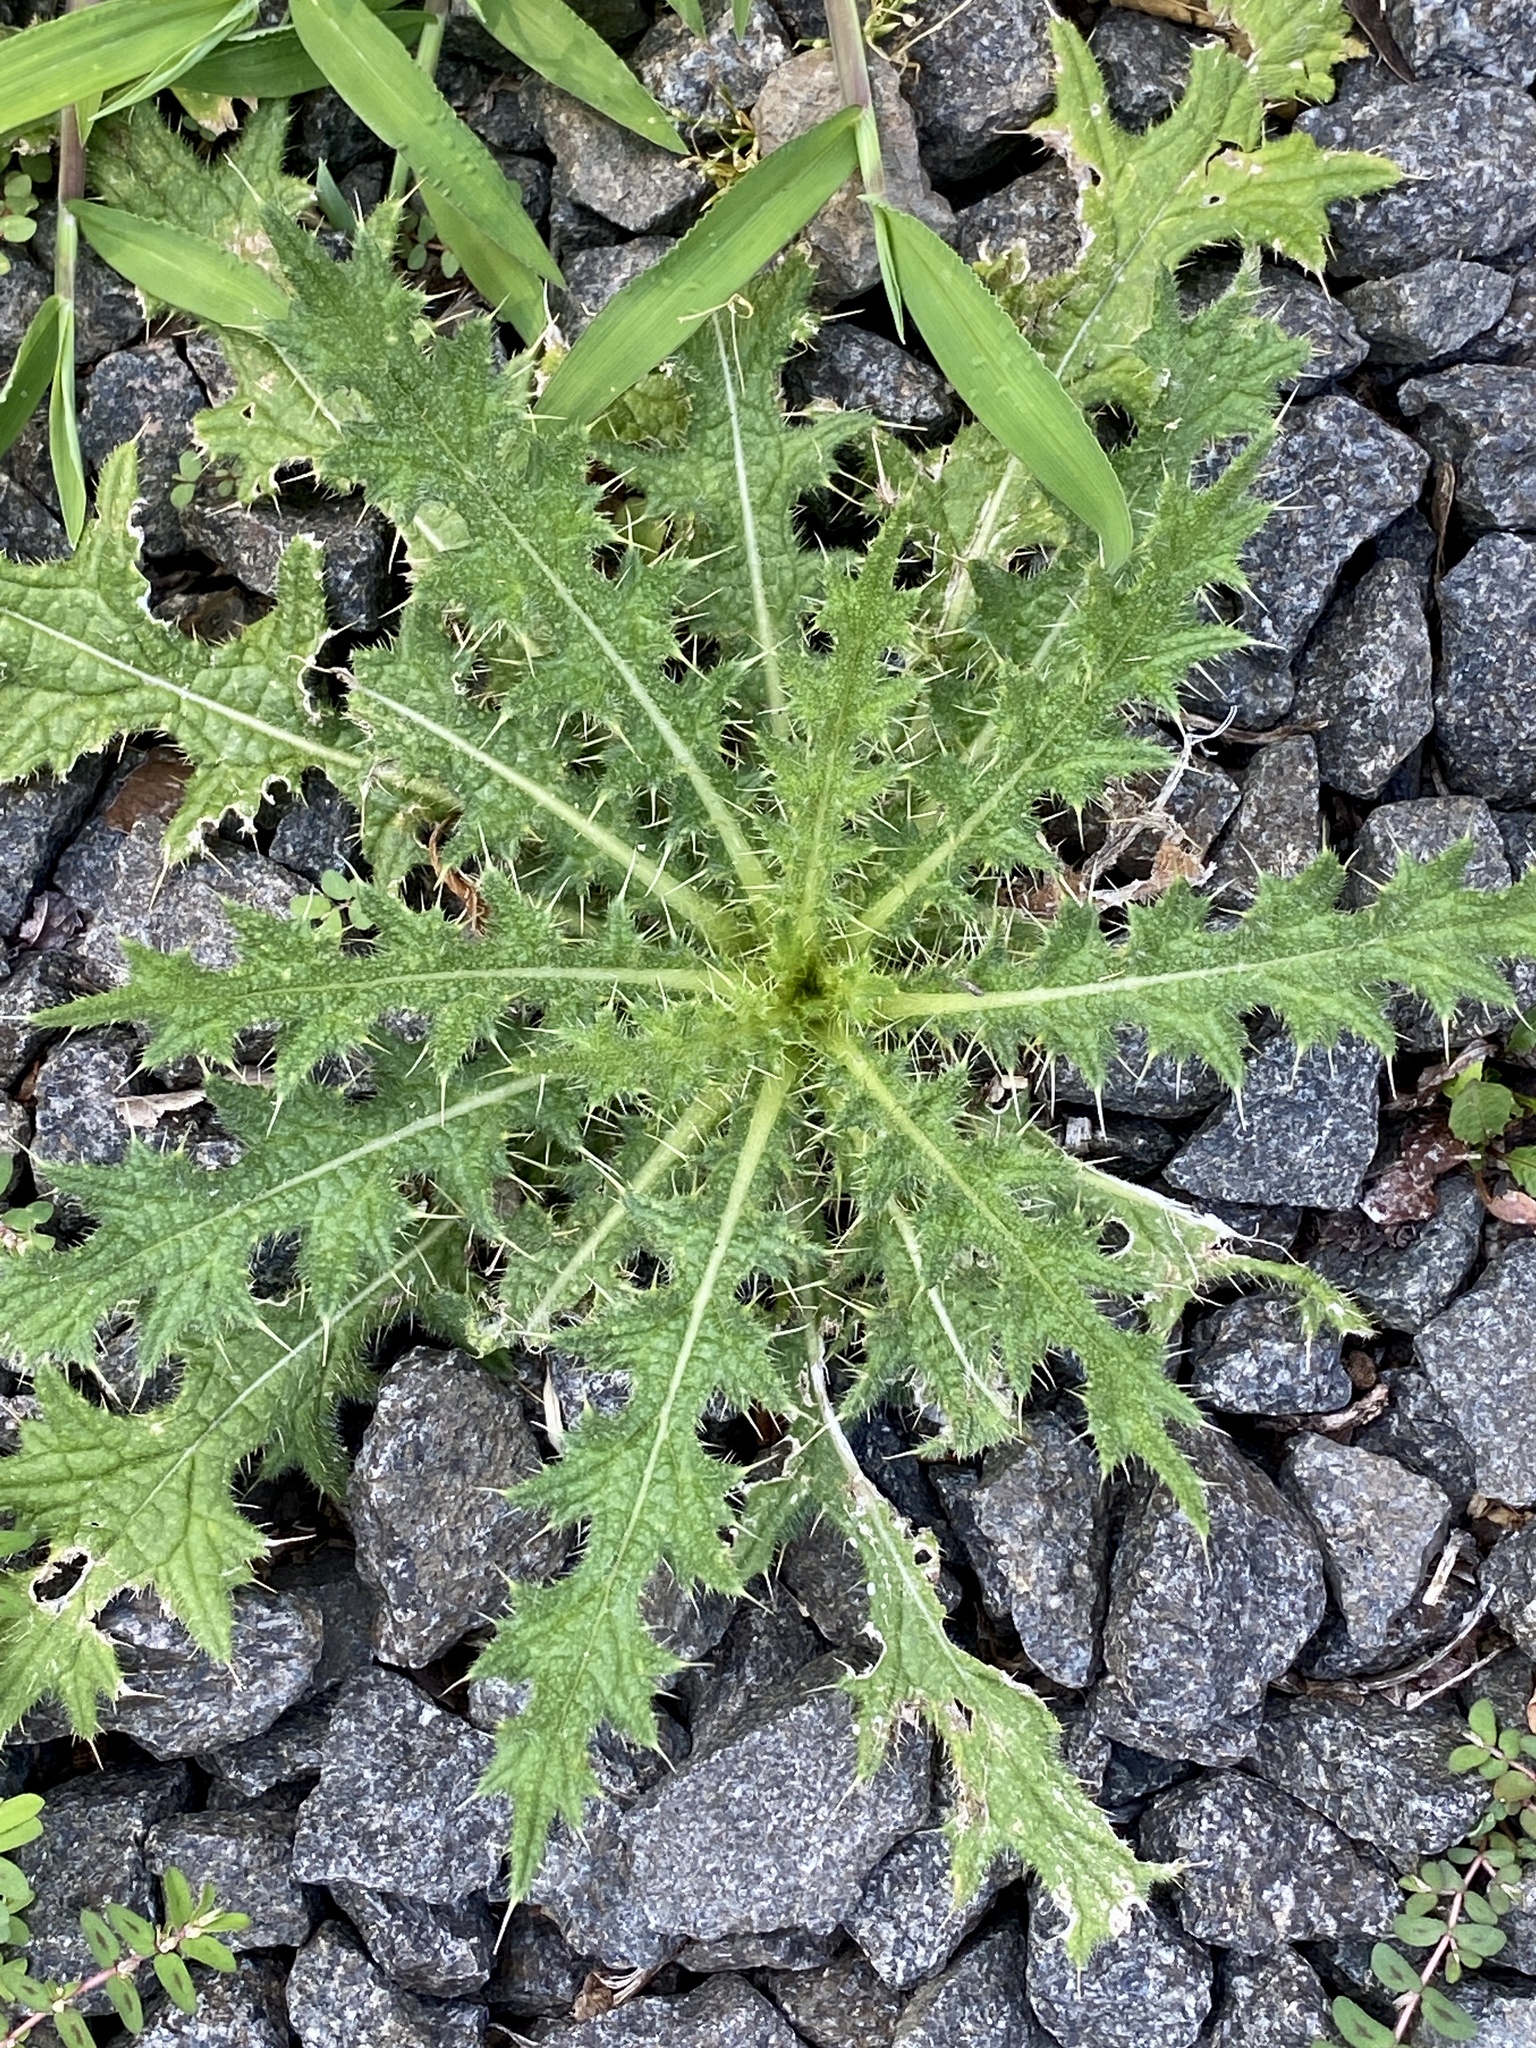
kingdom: Plantae
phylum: Tracheophyta
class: Magnoliopsida
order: Asterales
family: Asteraceae
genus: Cirsium
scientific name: Cirsium vulgare
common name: Bull thistle
